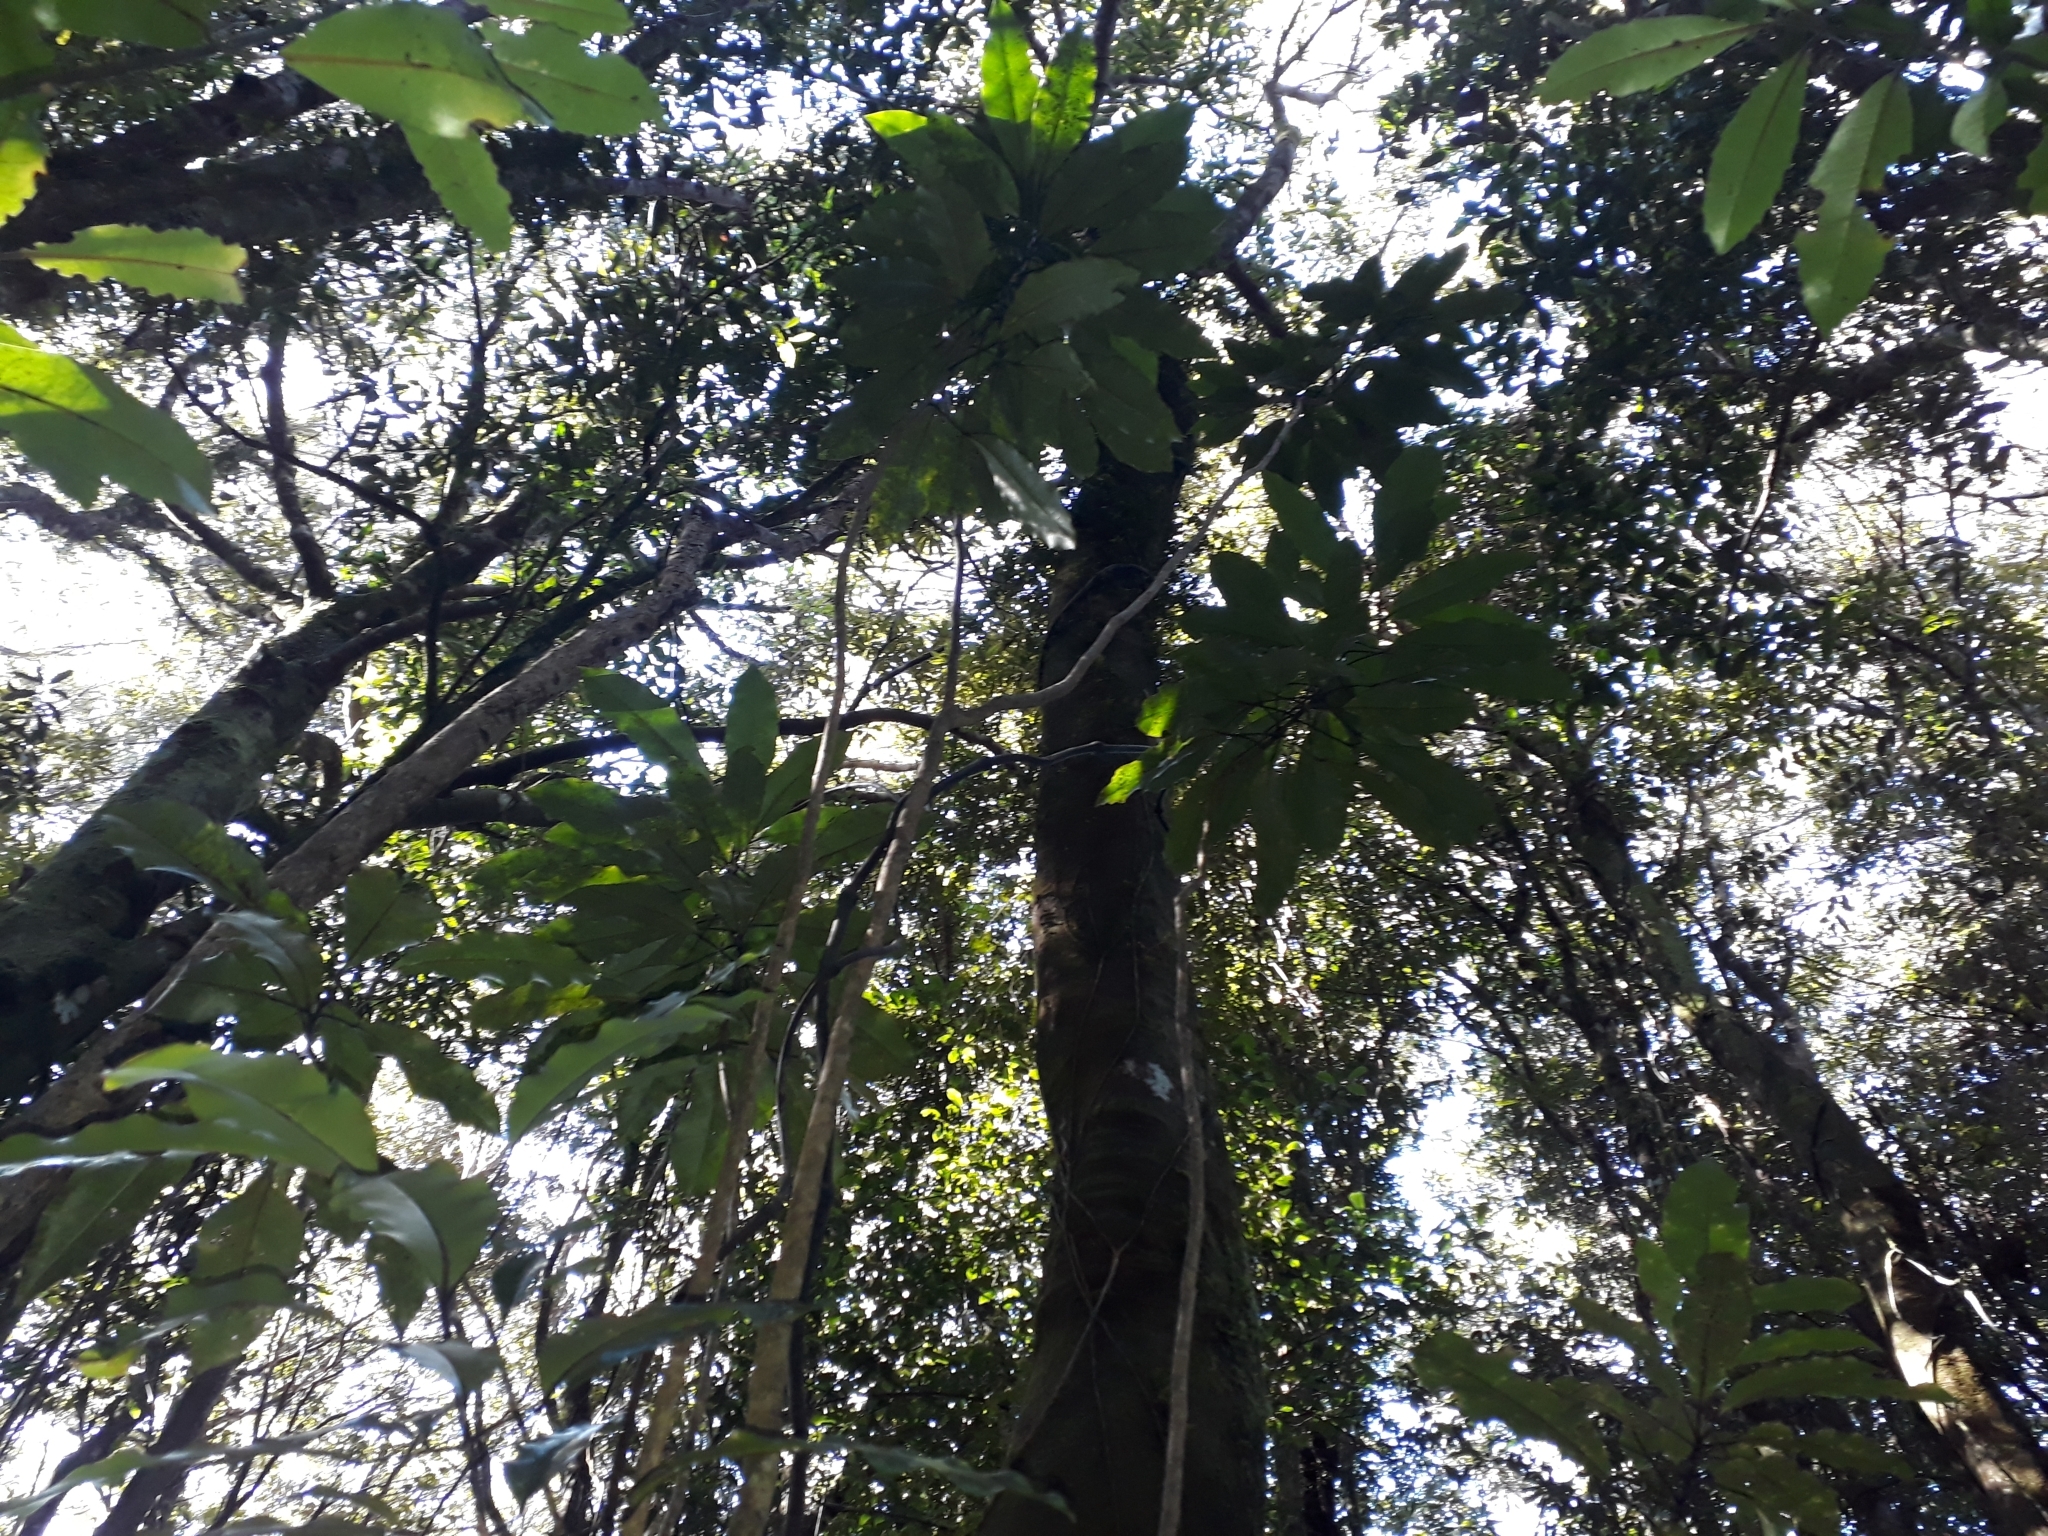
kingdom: Plantae
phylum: Tracheophyta
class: Magnoliopsida
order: Apiales
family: Araliaceae
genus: Raukaua
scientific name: Raukaua edgerleyi
